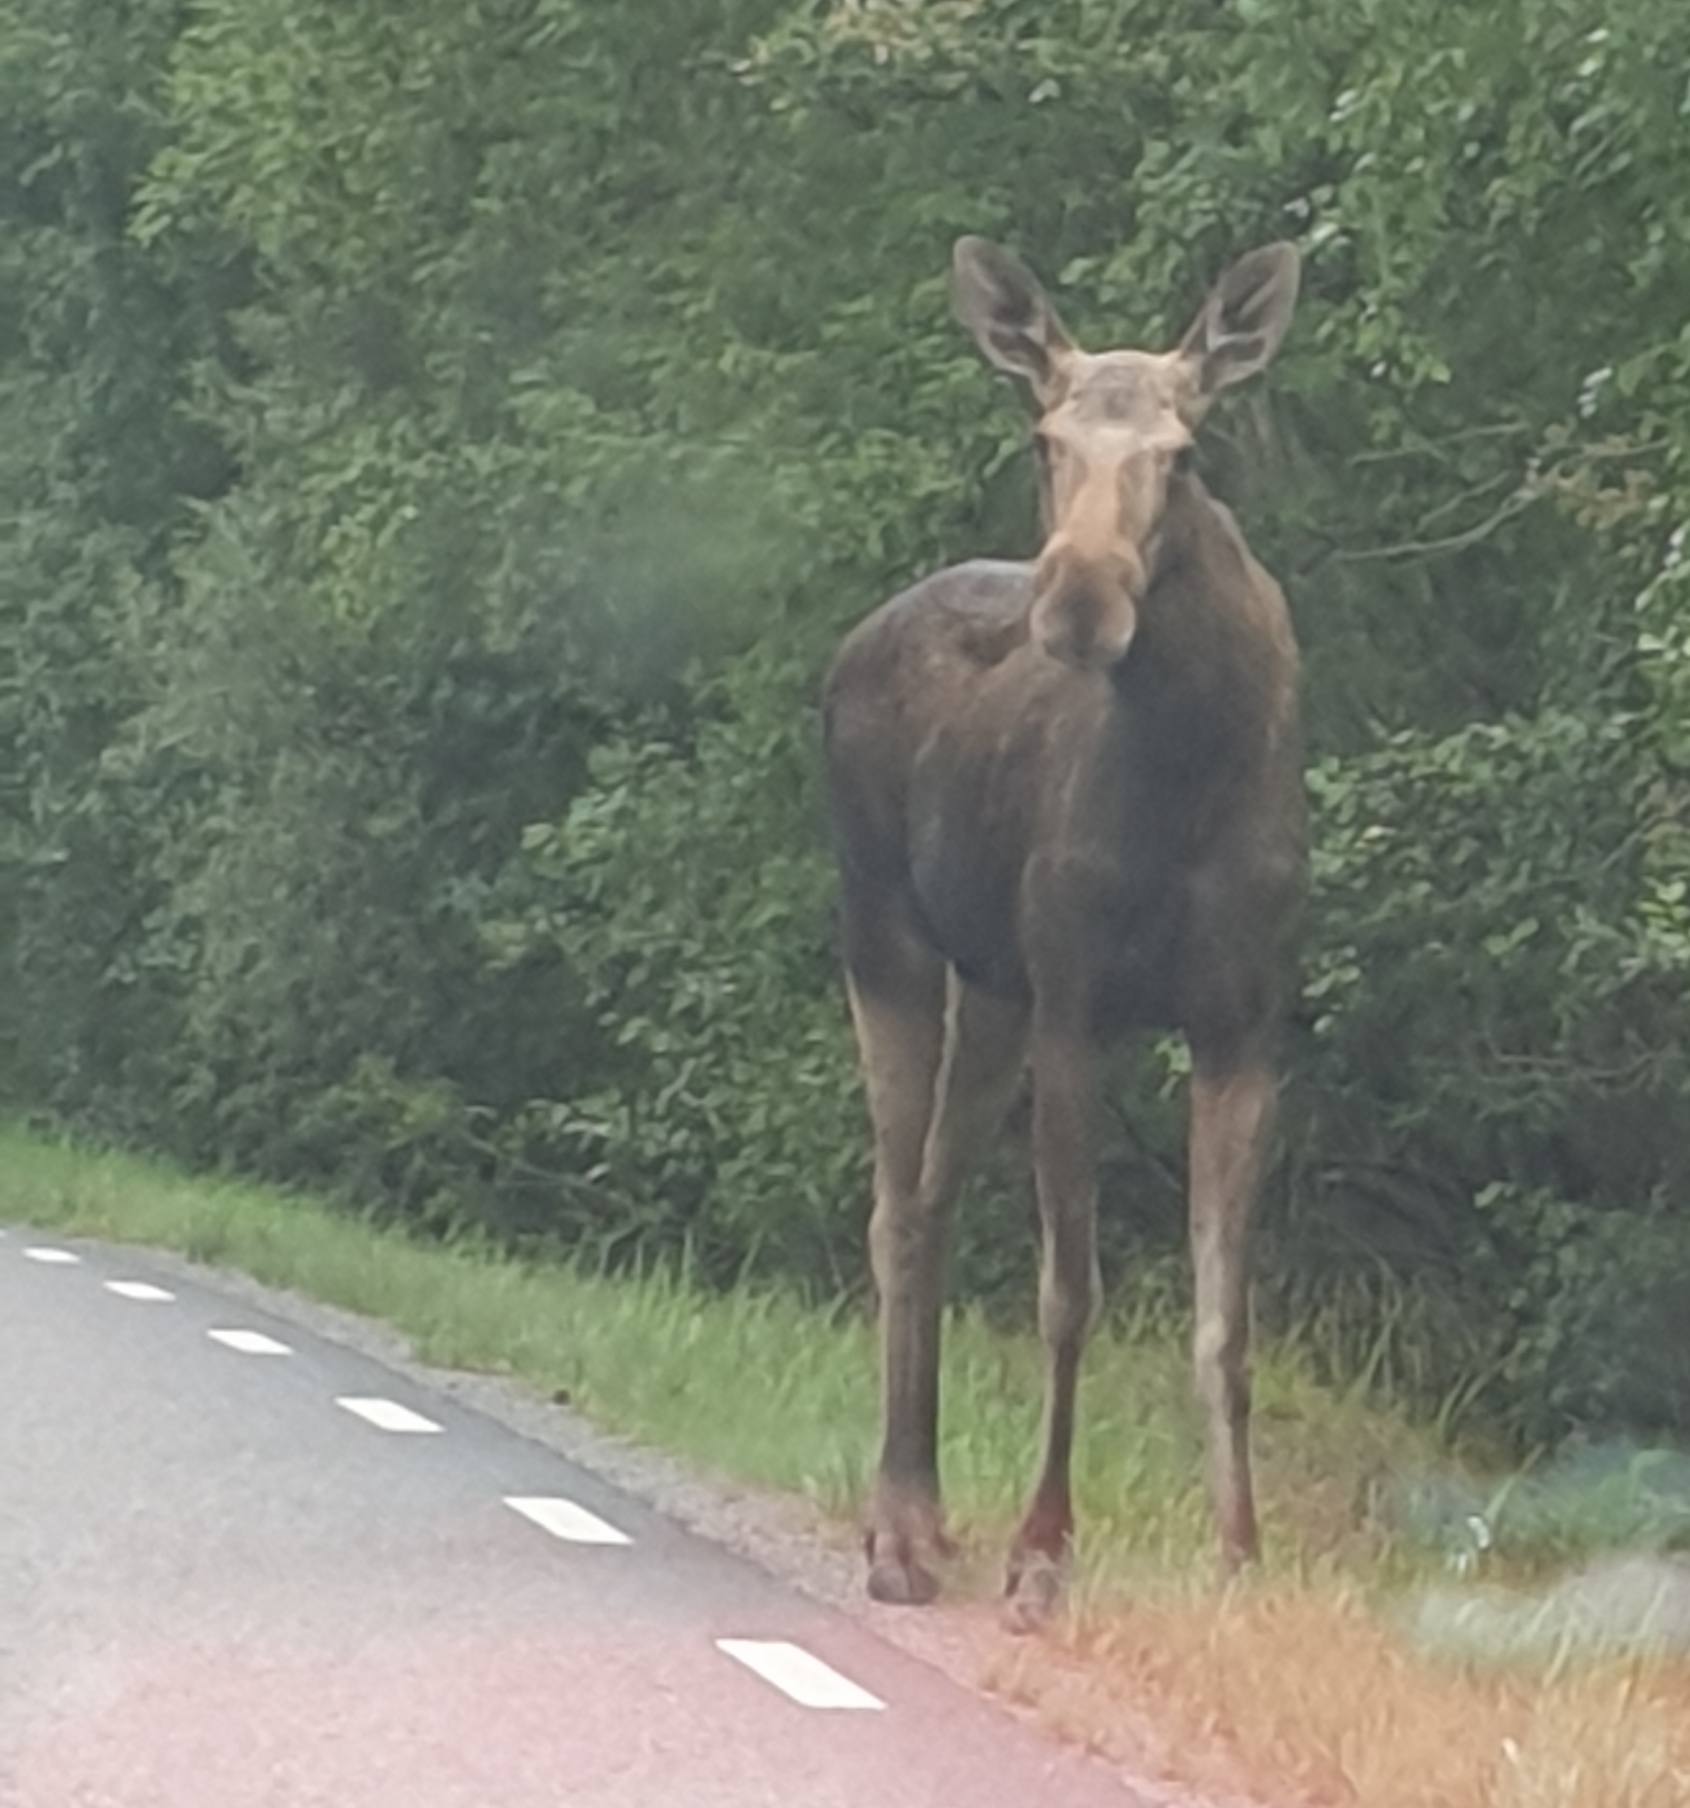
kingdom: Animalia
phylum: Chordata
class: Mammalia
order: Artiodactyla
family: Cervidae
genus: Alces
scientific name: Alces alces
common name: Moose
